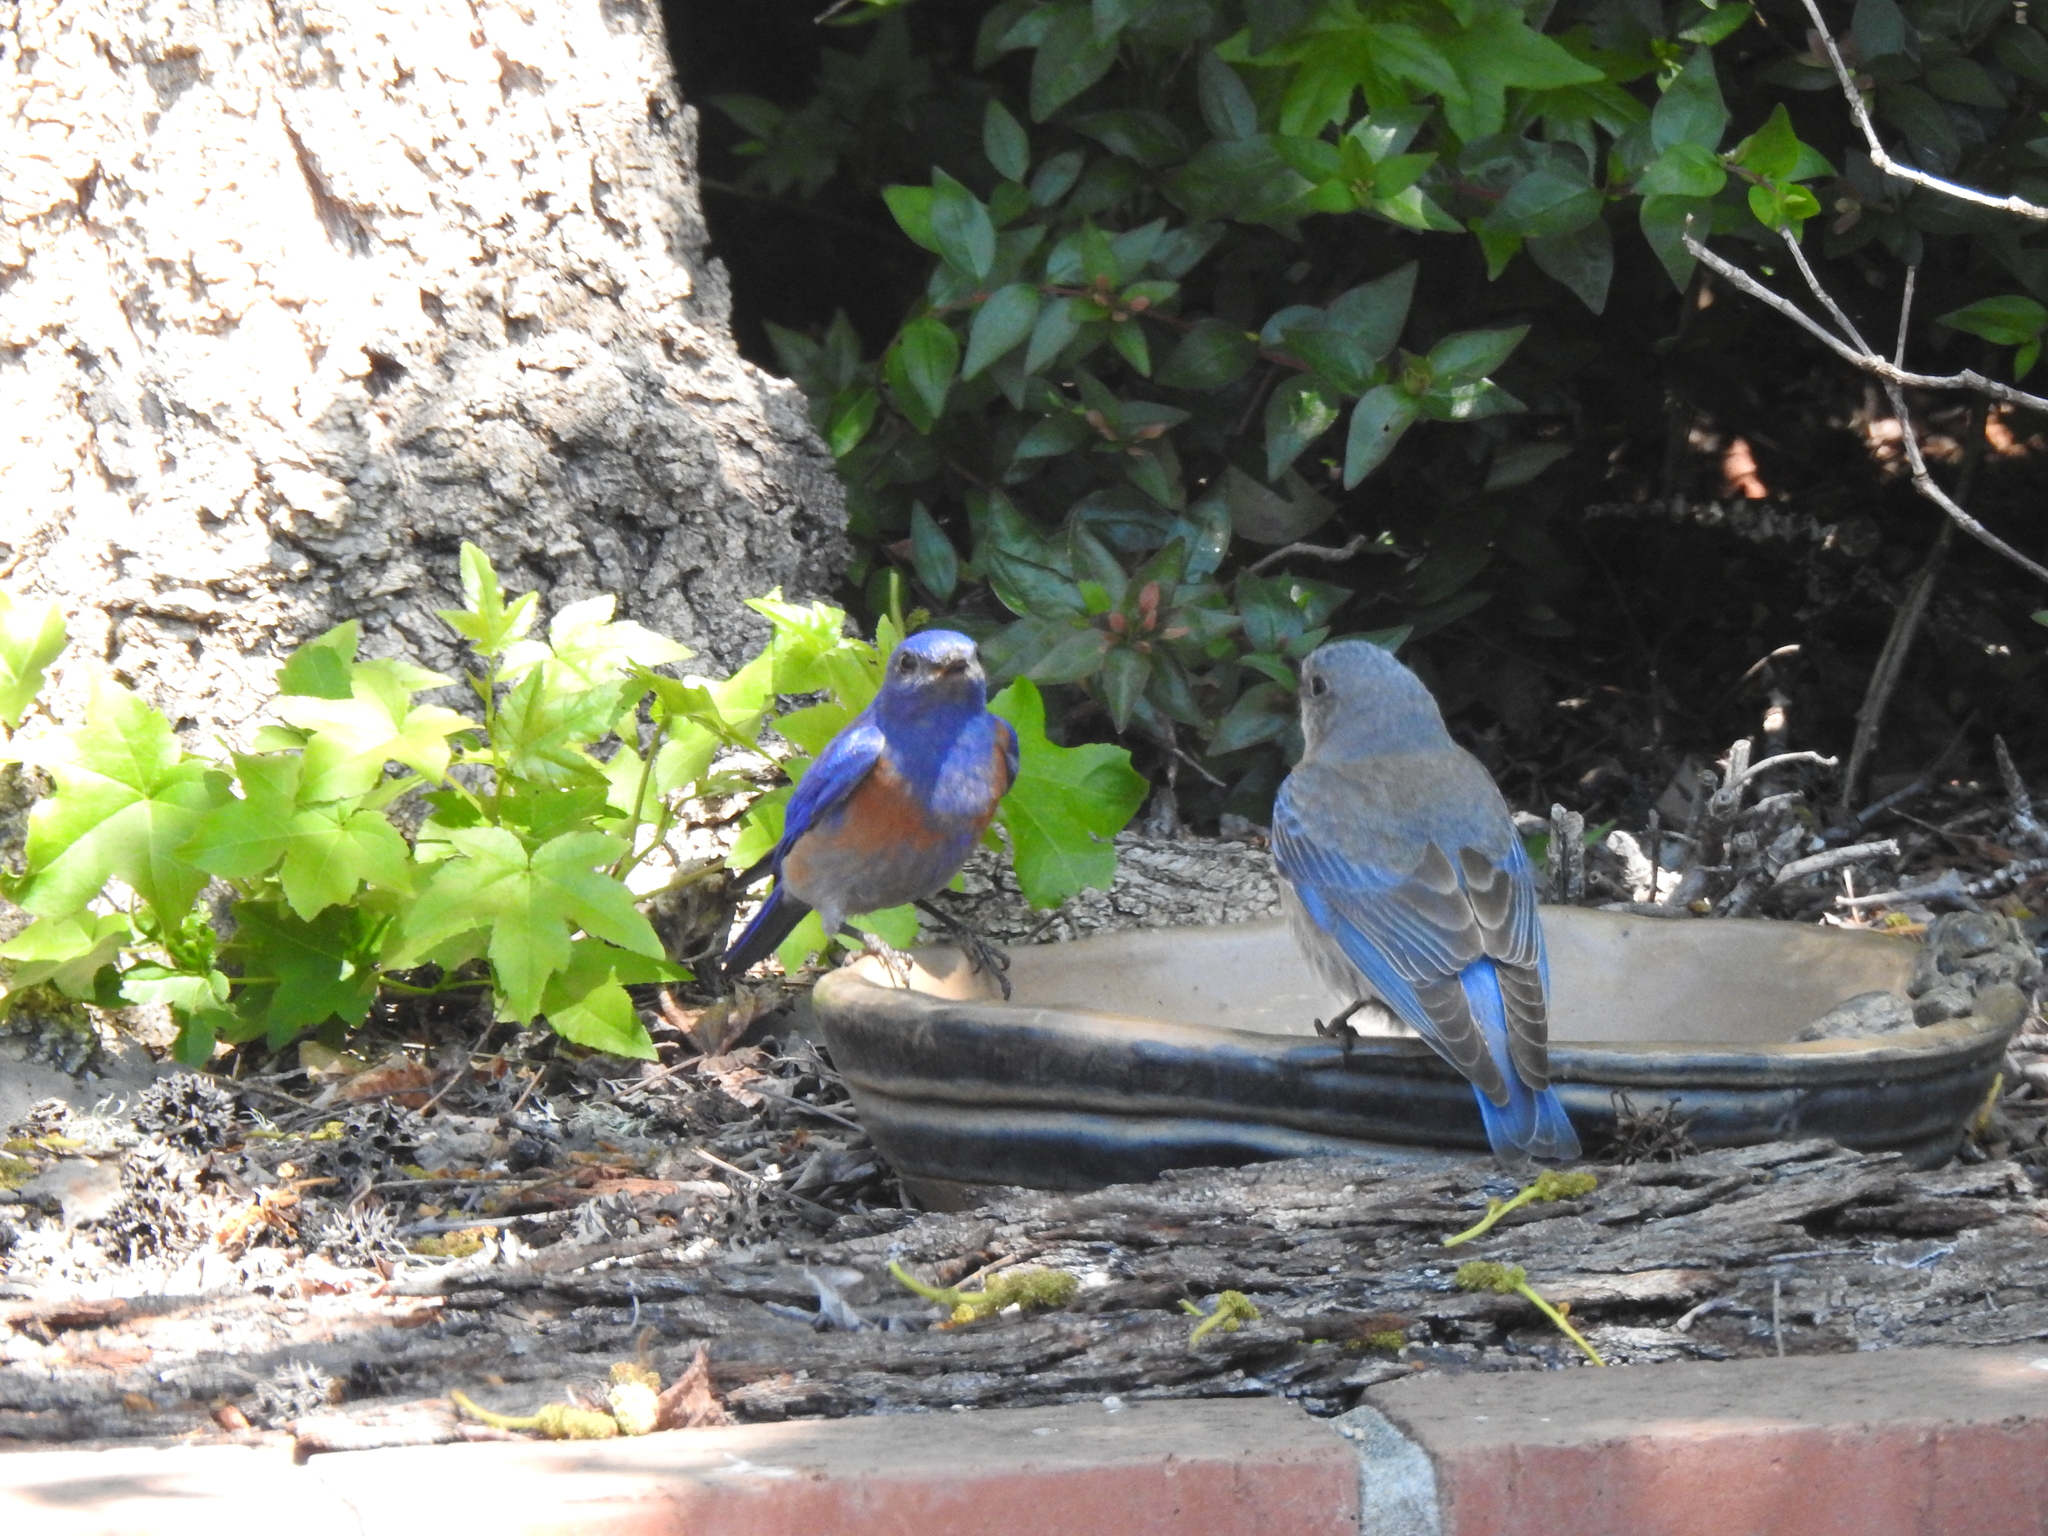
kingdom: Animalia
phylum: Chordata
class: Aves
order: Passeriformes
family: Turdidae
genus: Sialia
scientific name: Sialia mexicana
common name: Western bluebird
